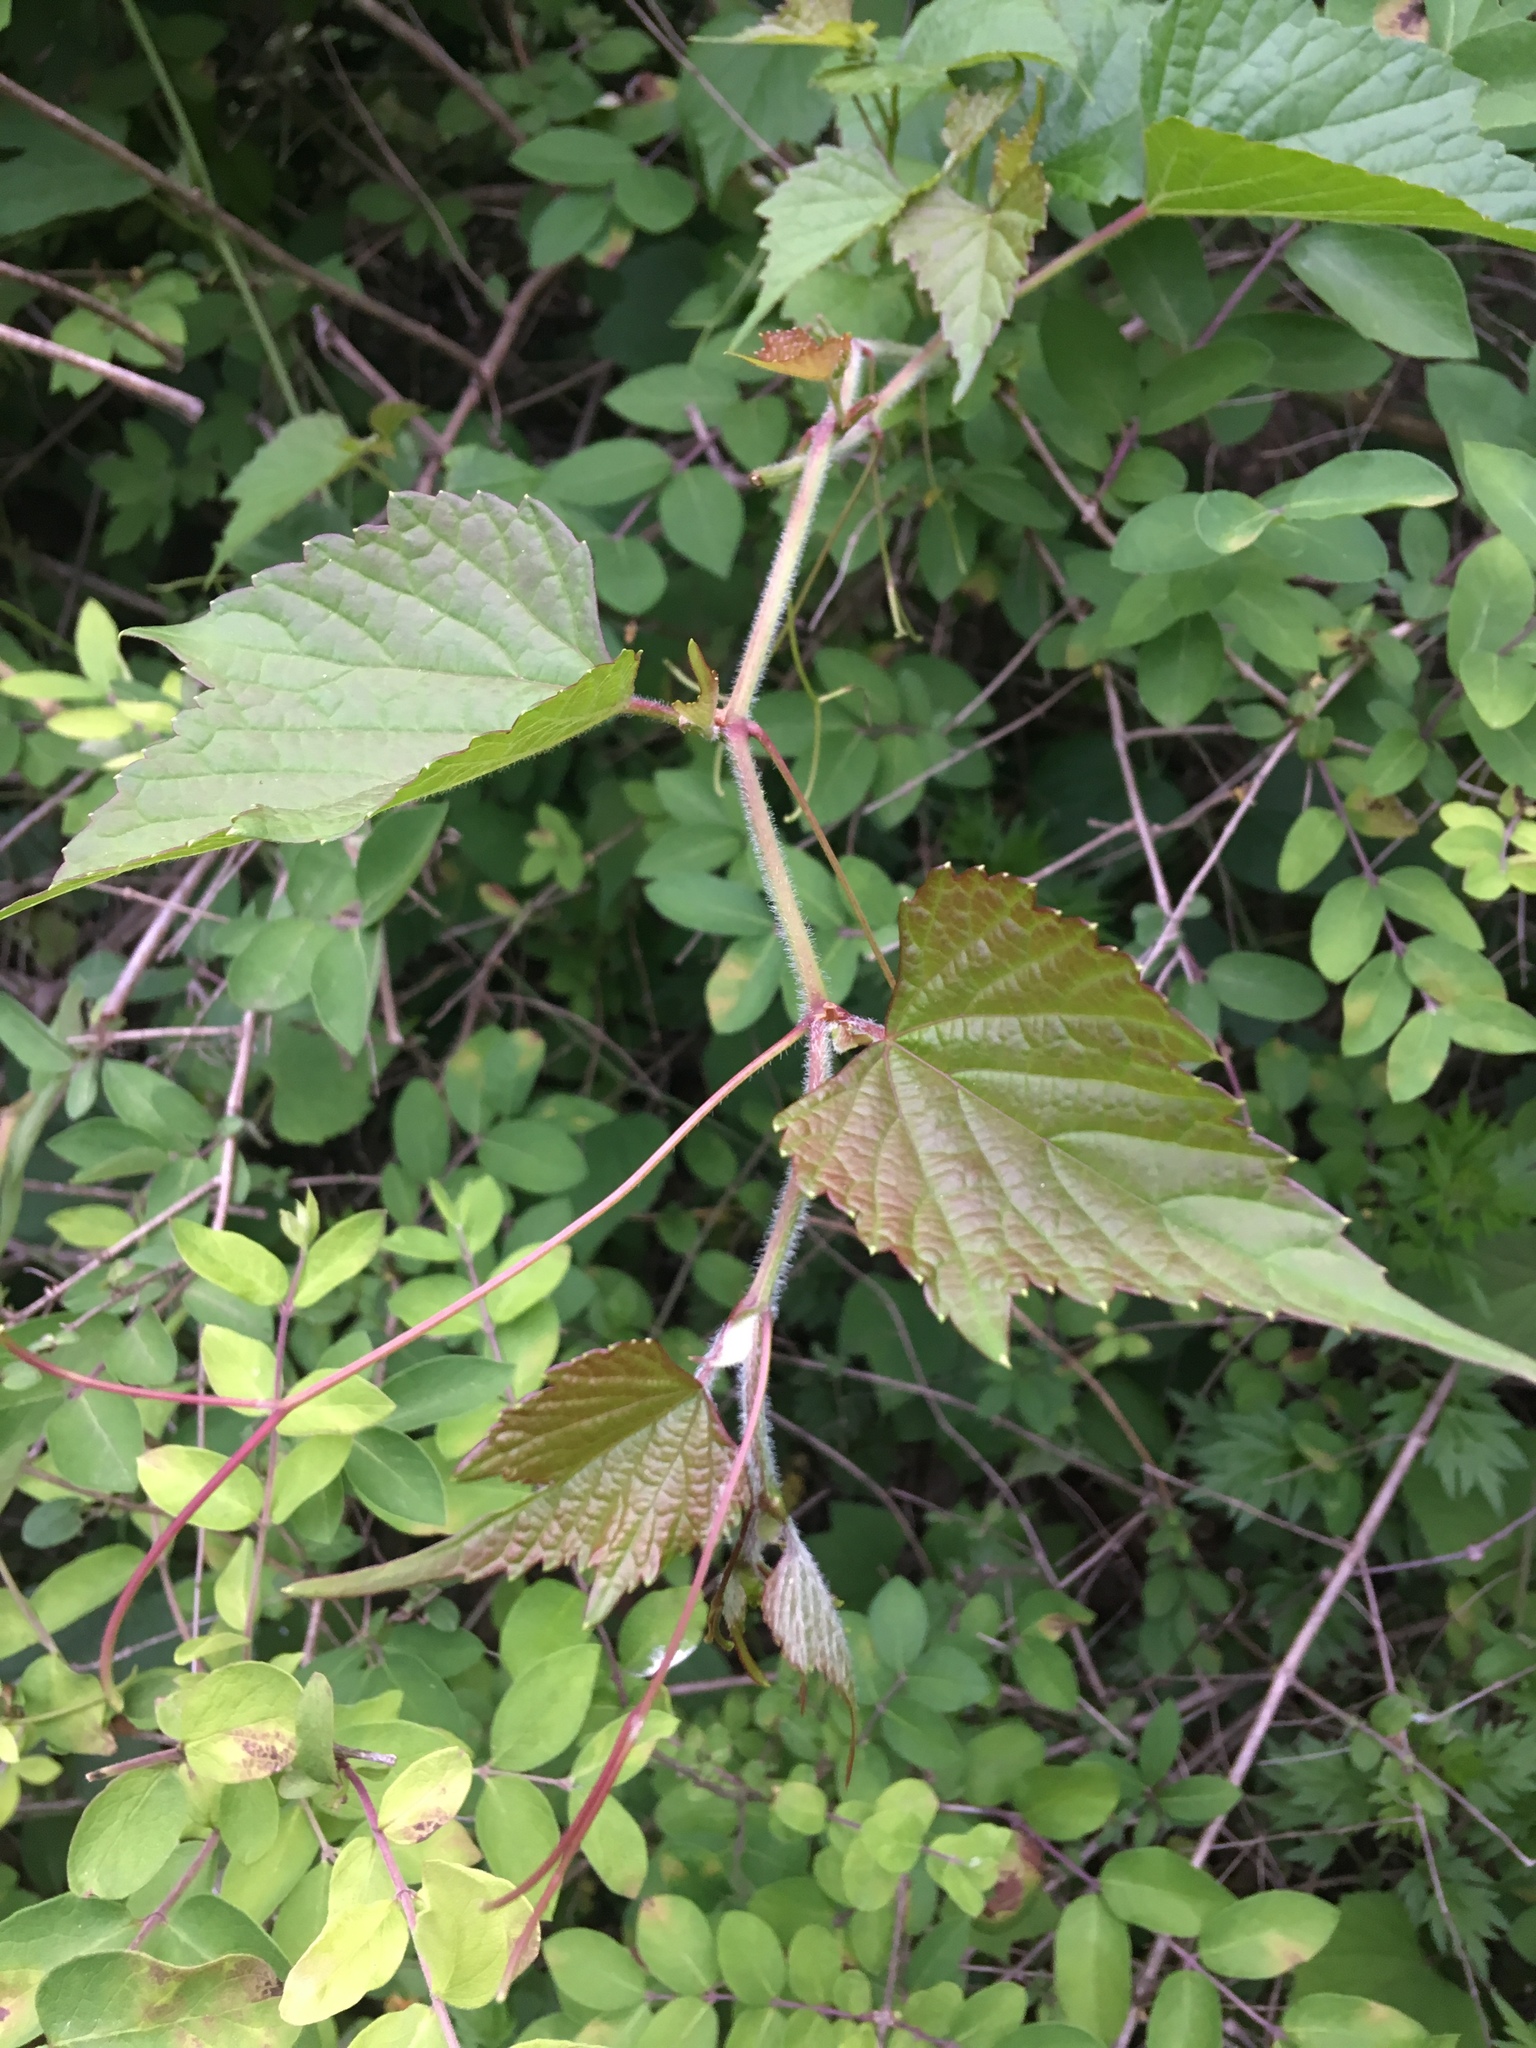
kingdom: Plantae
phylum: Tracheophyta
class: Magnoliopsida
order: Vitales
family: Vitaceae
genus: Ampelopsis
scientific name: Ampelopsis glandulosa
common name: Amur peppervine
